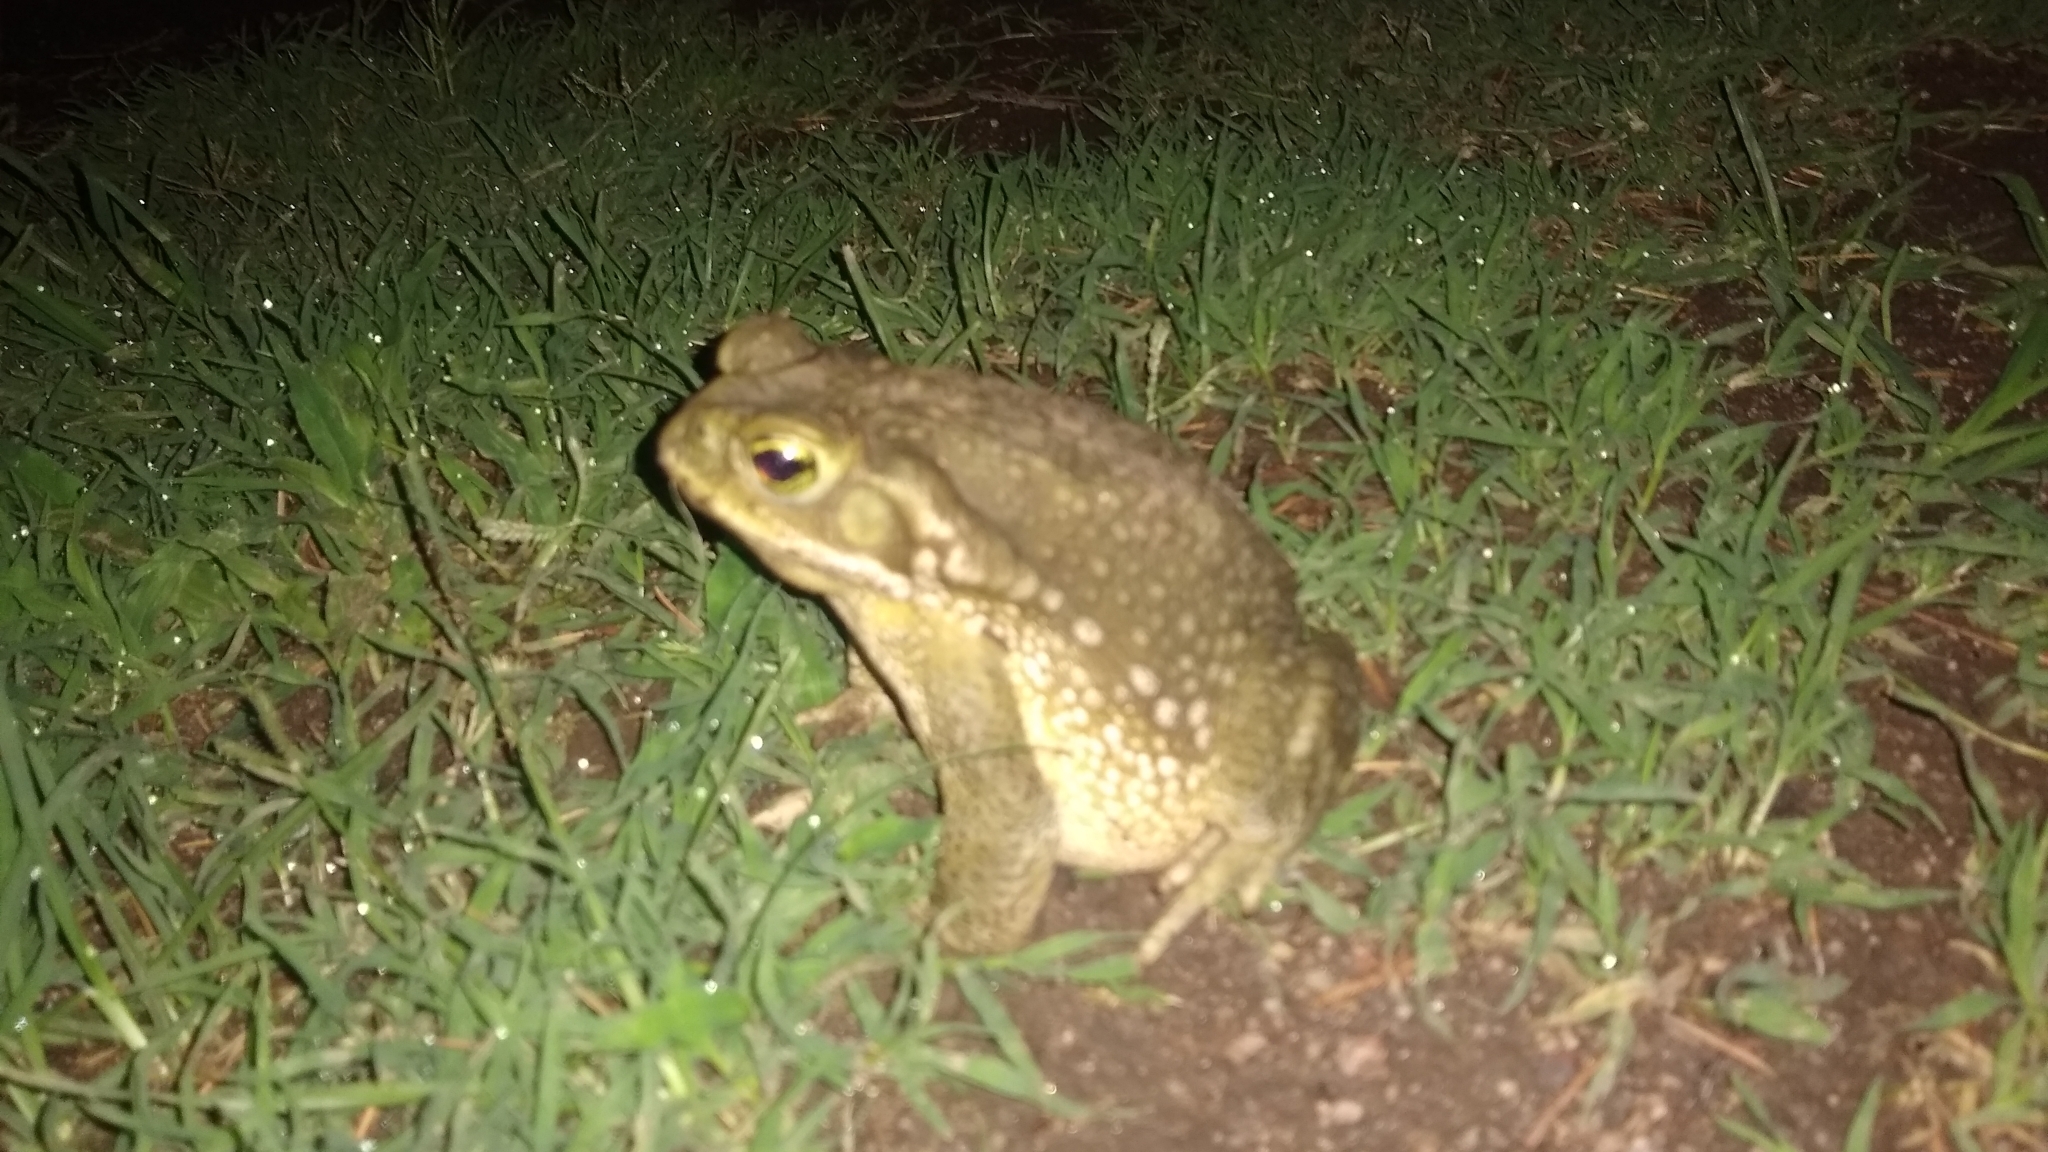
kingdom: Animalia
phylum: Chordata
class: Amphibia
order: Anura
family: Bufonidae
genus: Rhinella
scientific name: Rhinella arenarum
